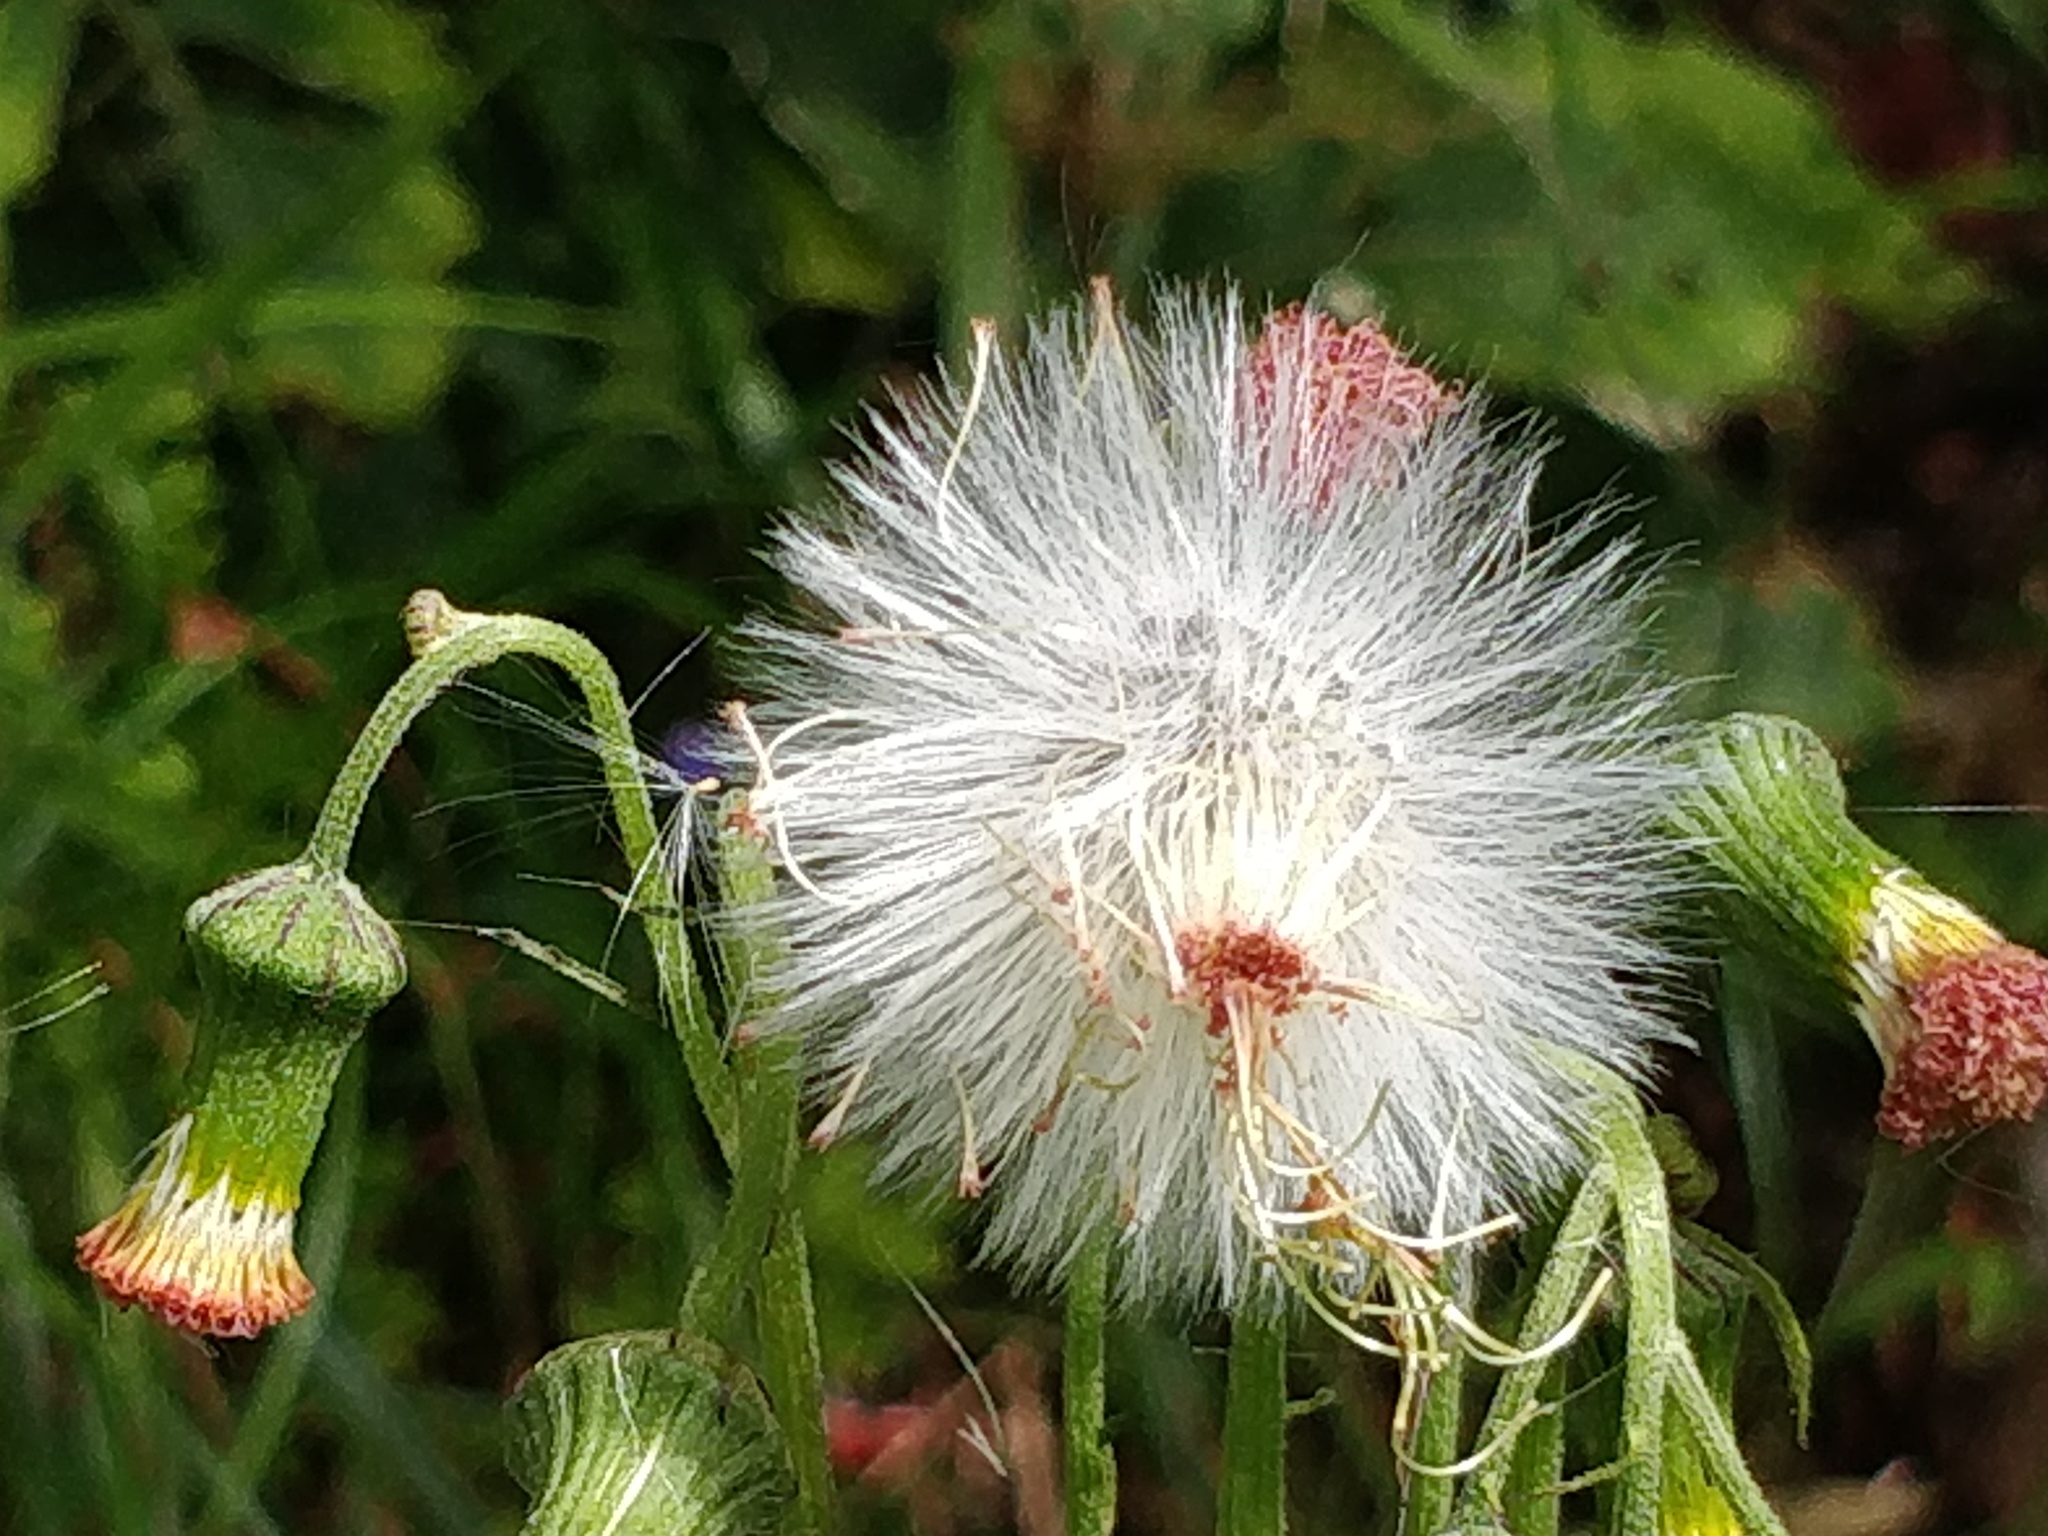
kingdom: Plantae
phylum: Tracheophyta
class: Magnoliopsida
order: Asterales
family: Asteraceae
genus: Crassocephalum
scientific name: Crassocephalum crepidioides
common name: Redflower ragleaf
